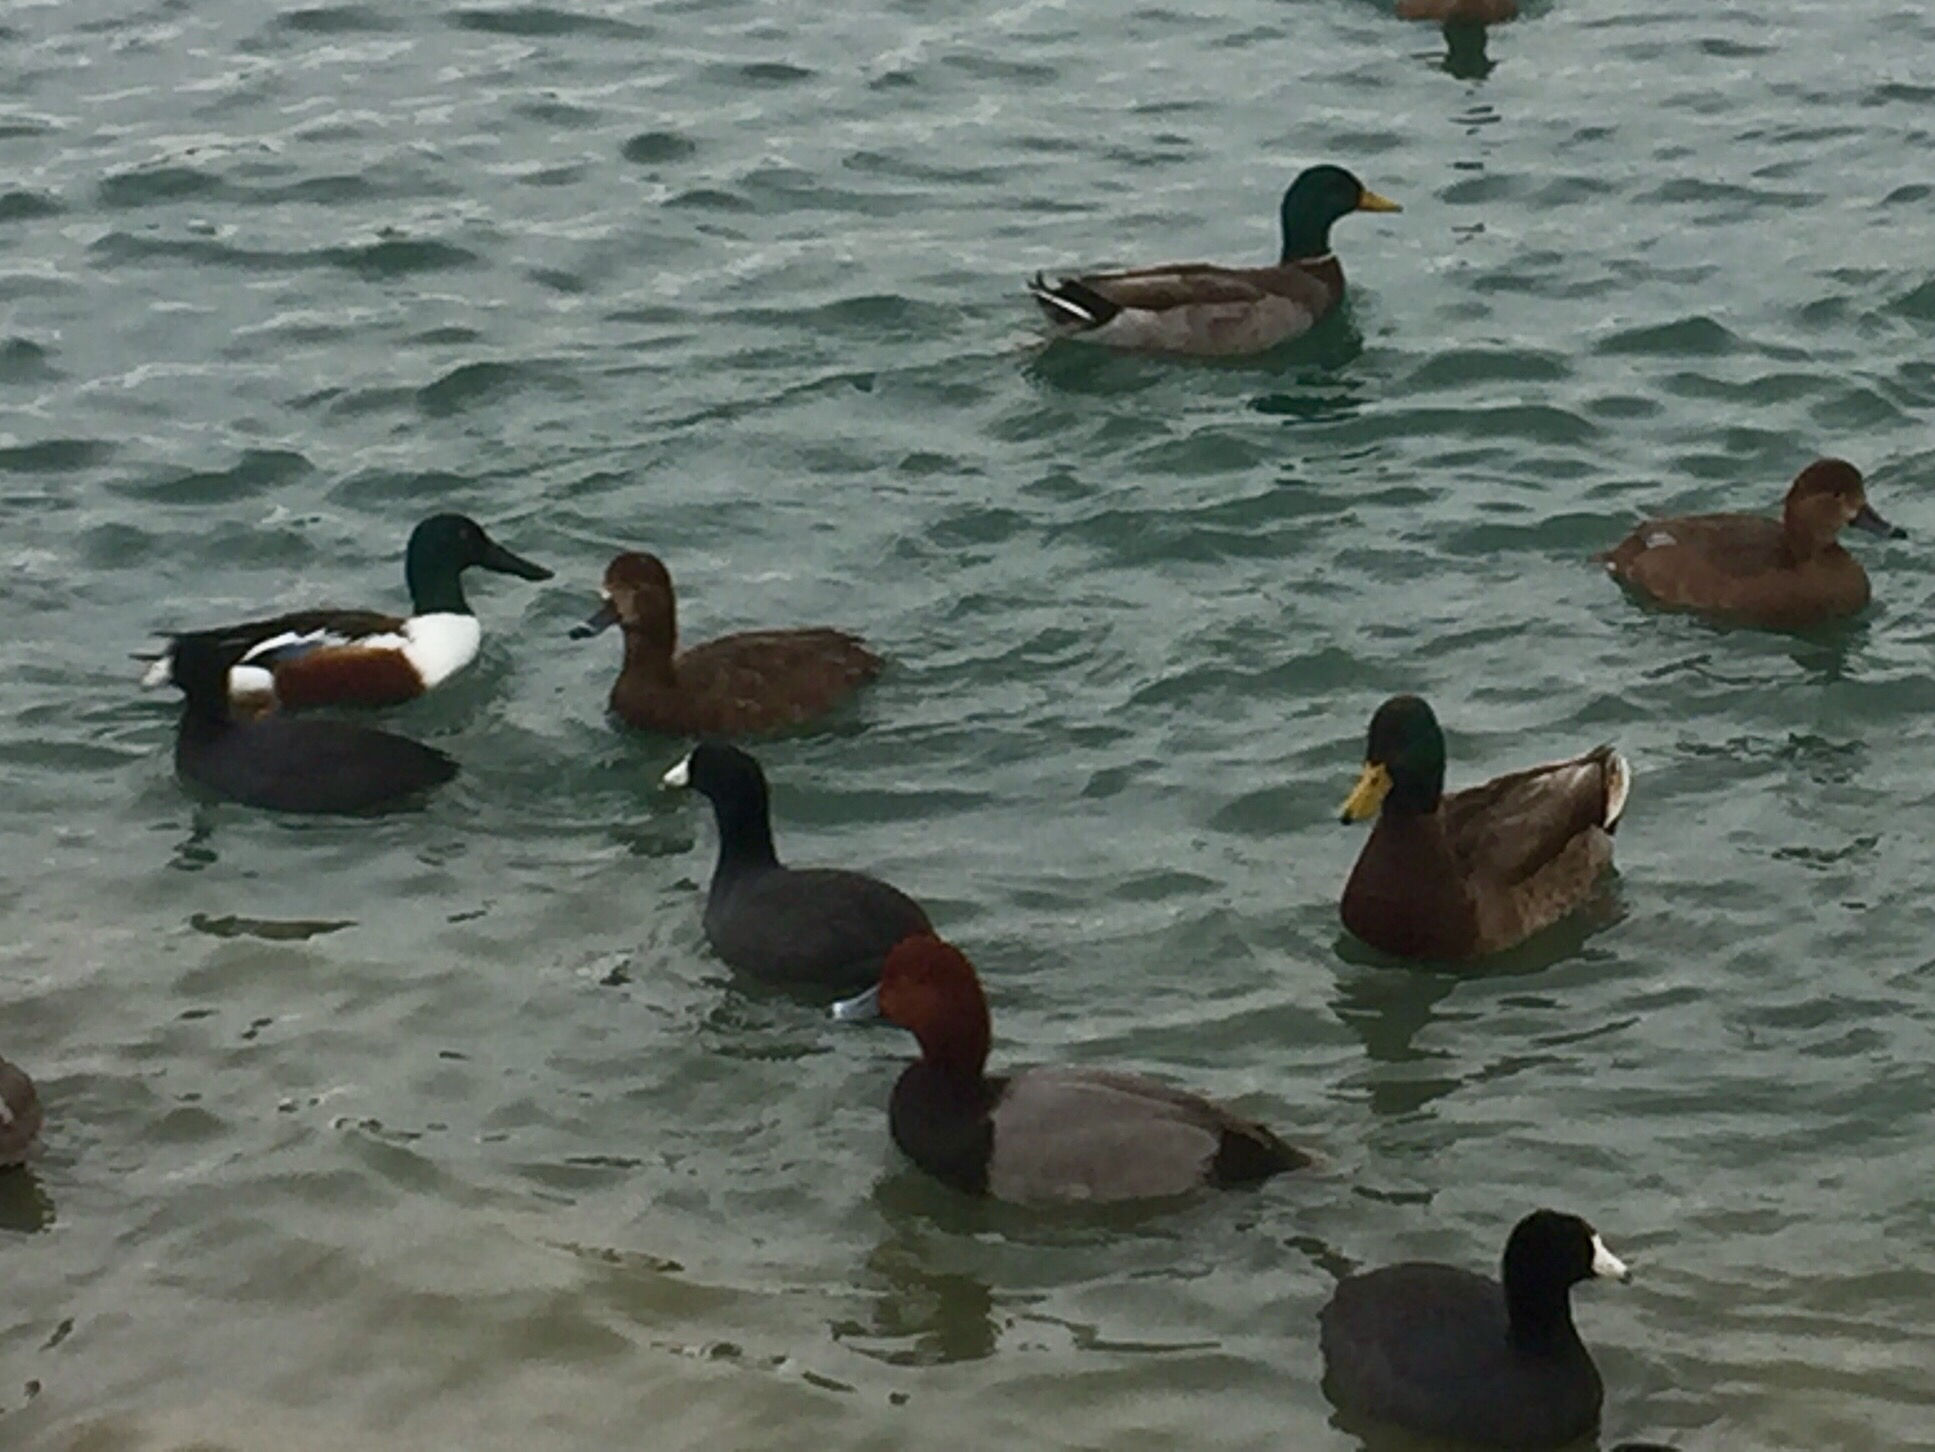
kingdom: Animalia
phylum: Chordata
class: Aves
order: Anseriformes
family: Anatidae
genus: Aythya
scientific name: Aythya americana
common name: Redhead
